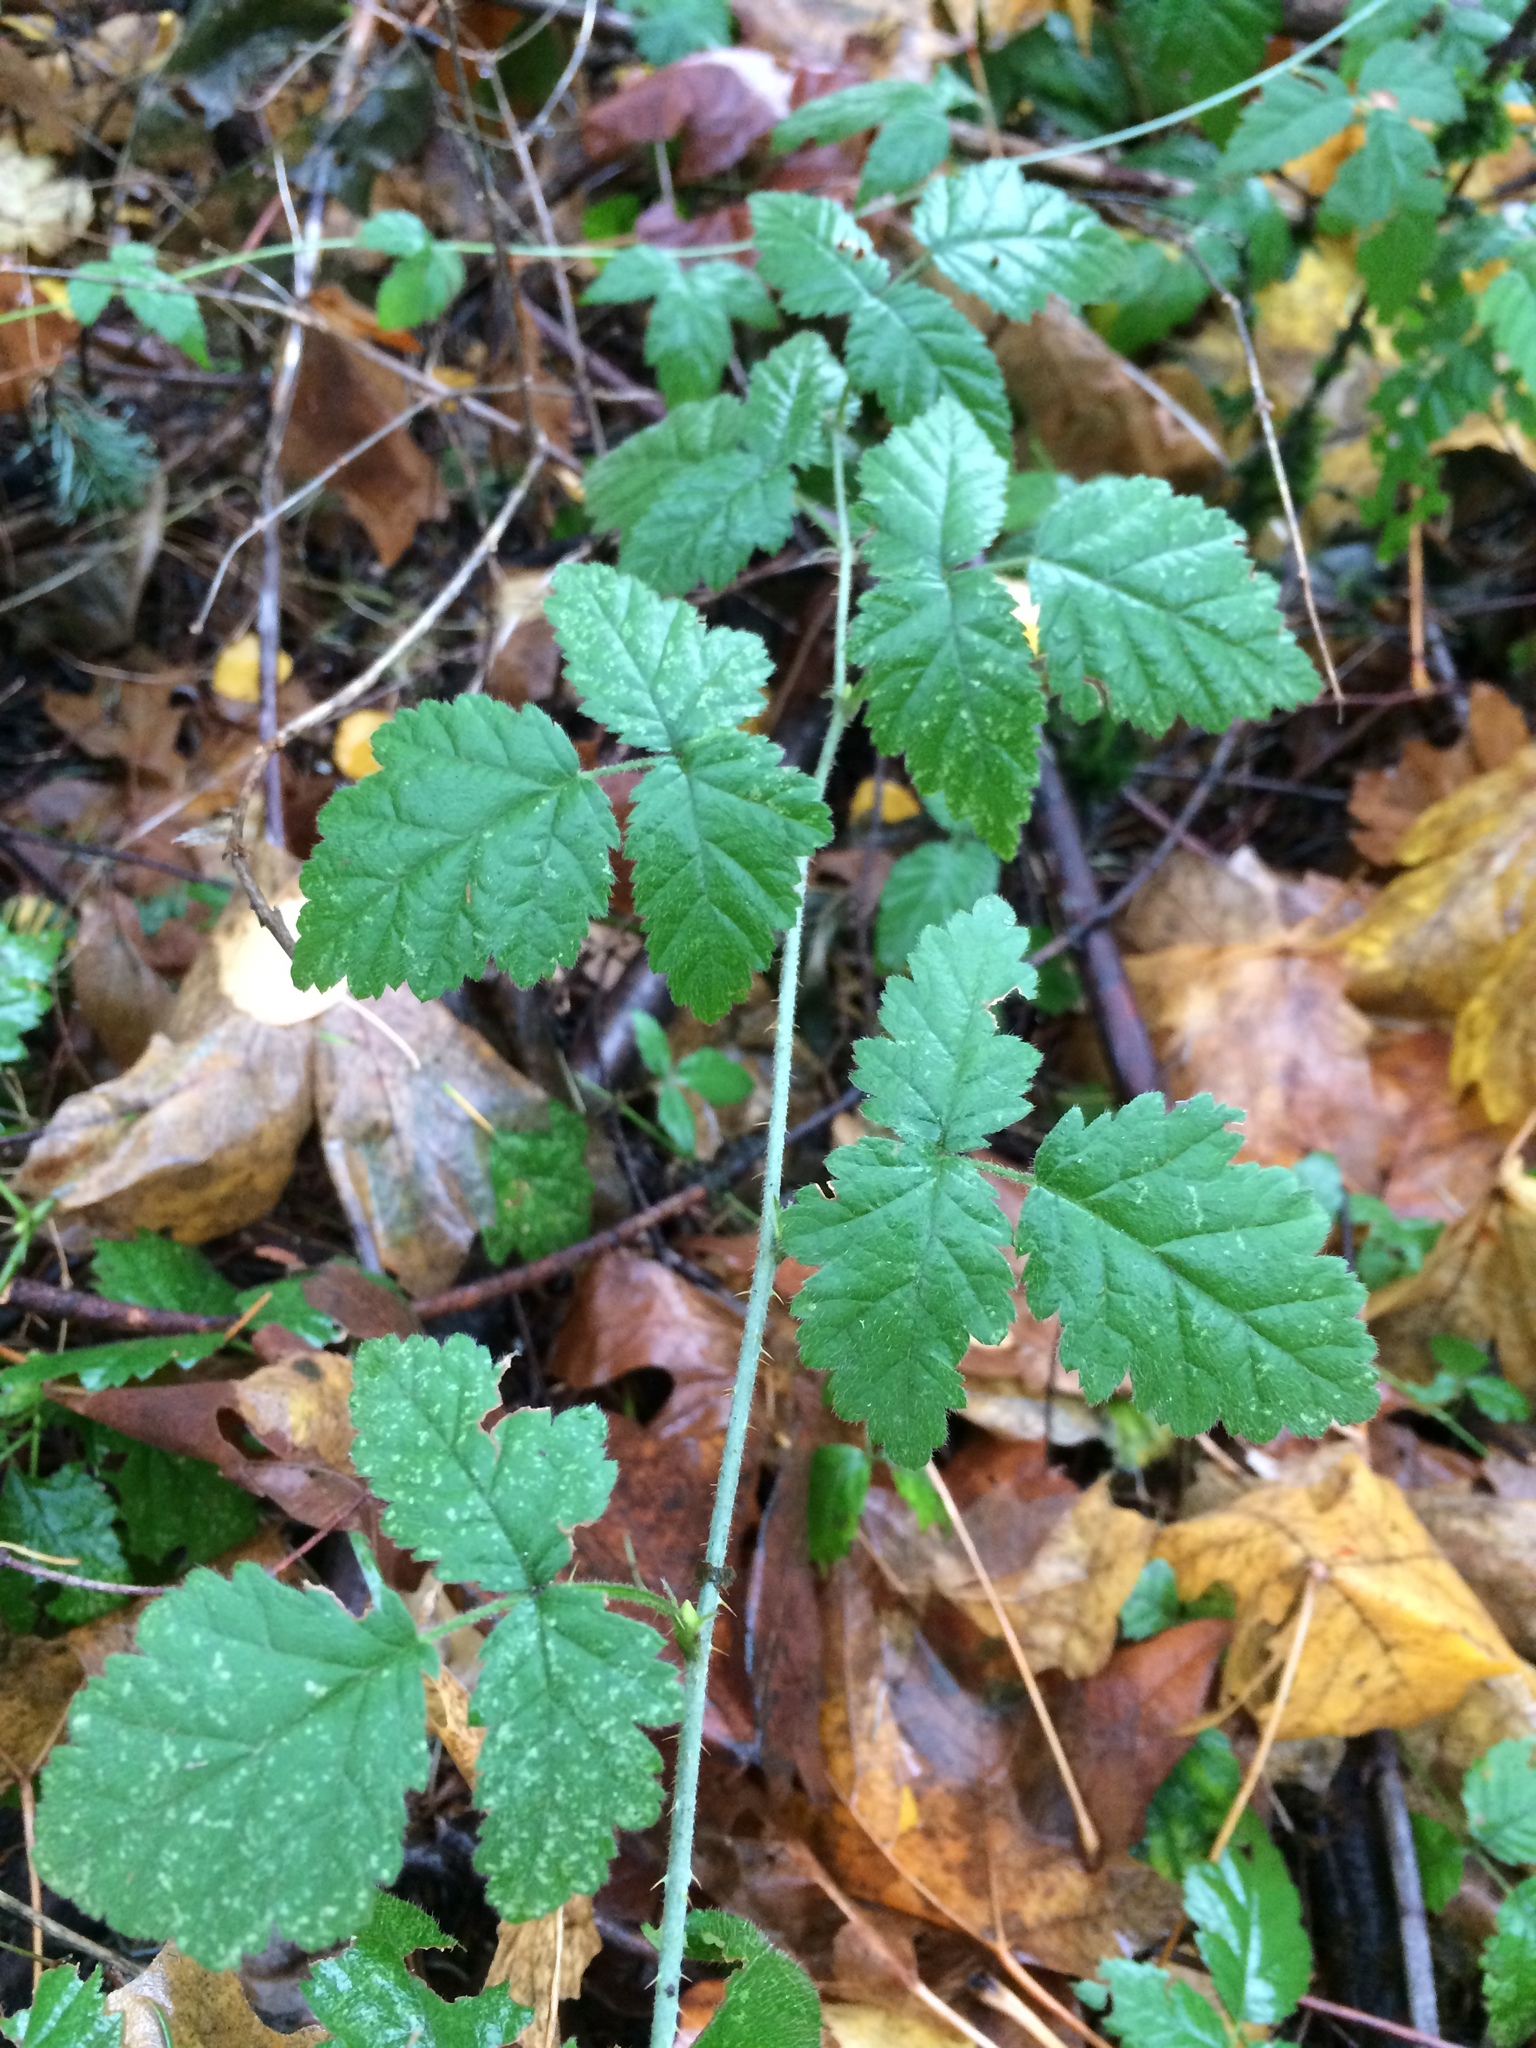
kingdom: Plantae
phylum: Tracheophyta
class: Magnoliopsida
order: Rosales
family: Rosaceae
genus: Rubus
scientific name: Rubus ursinus
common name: Pacific blackberry
